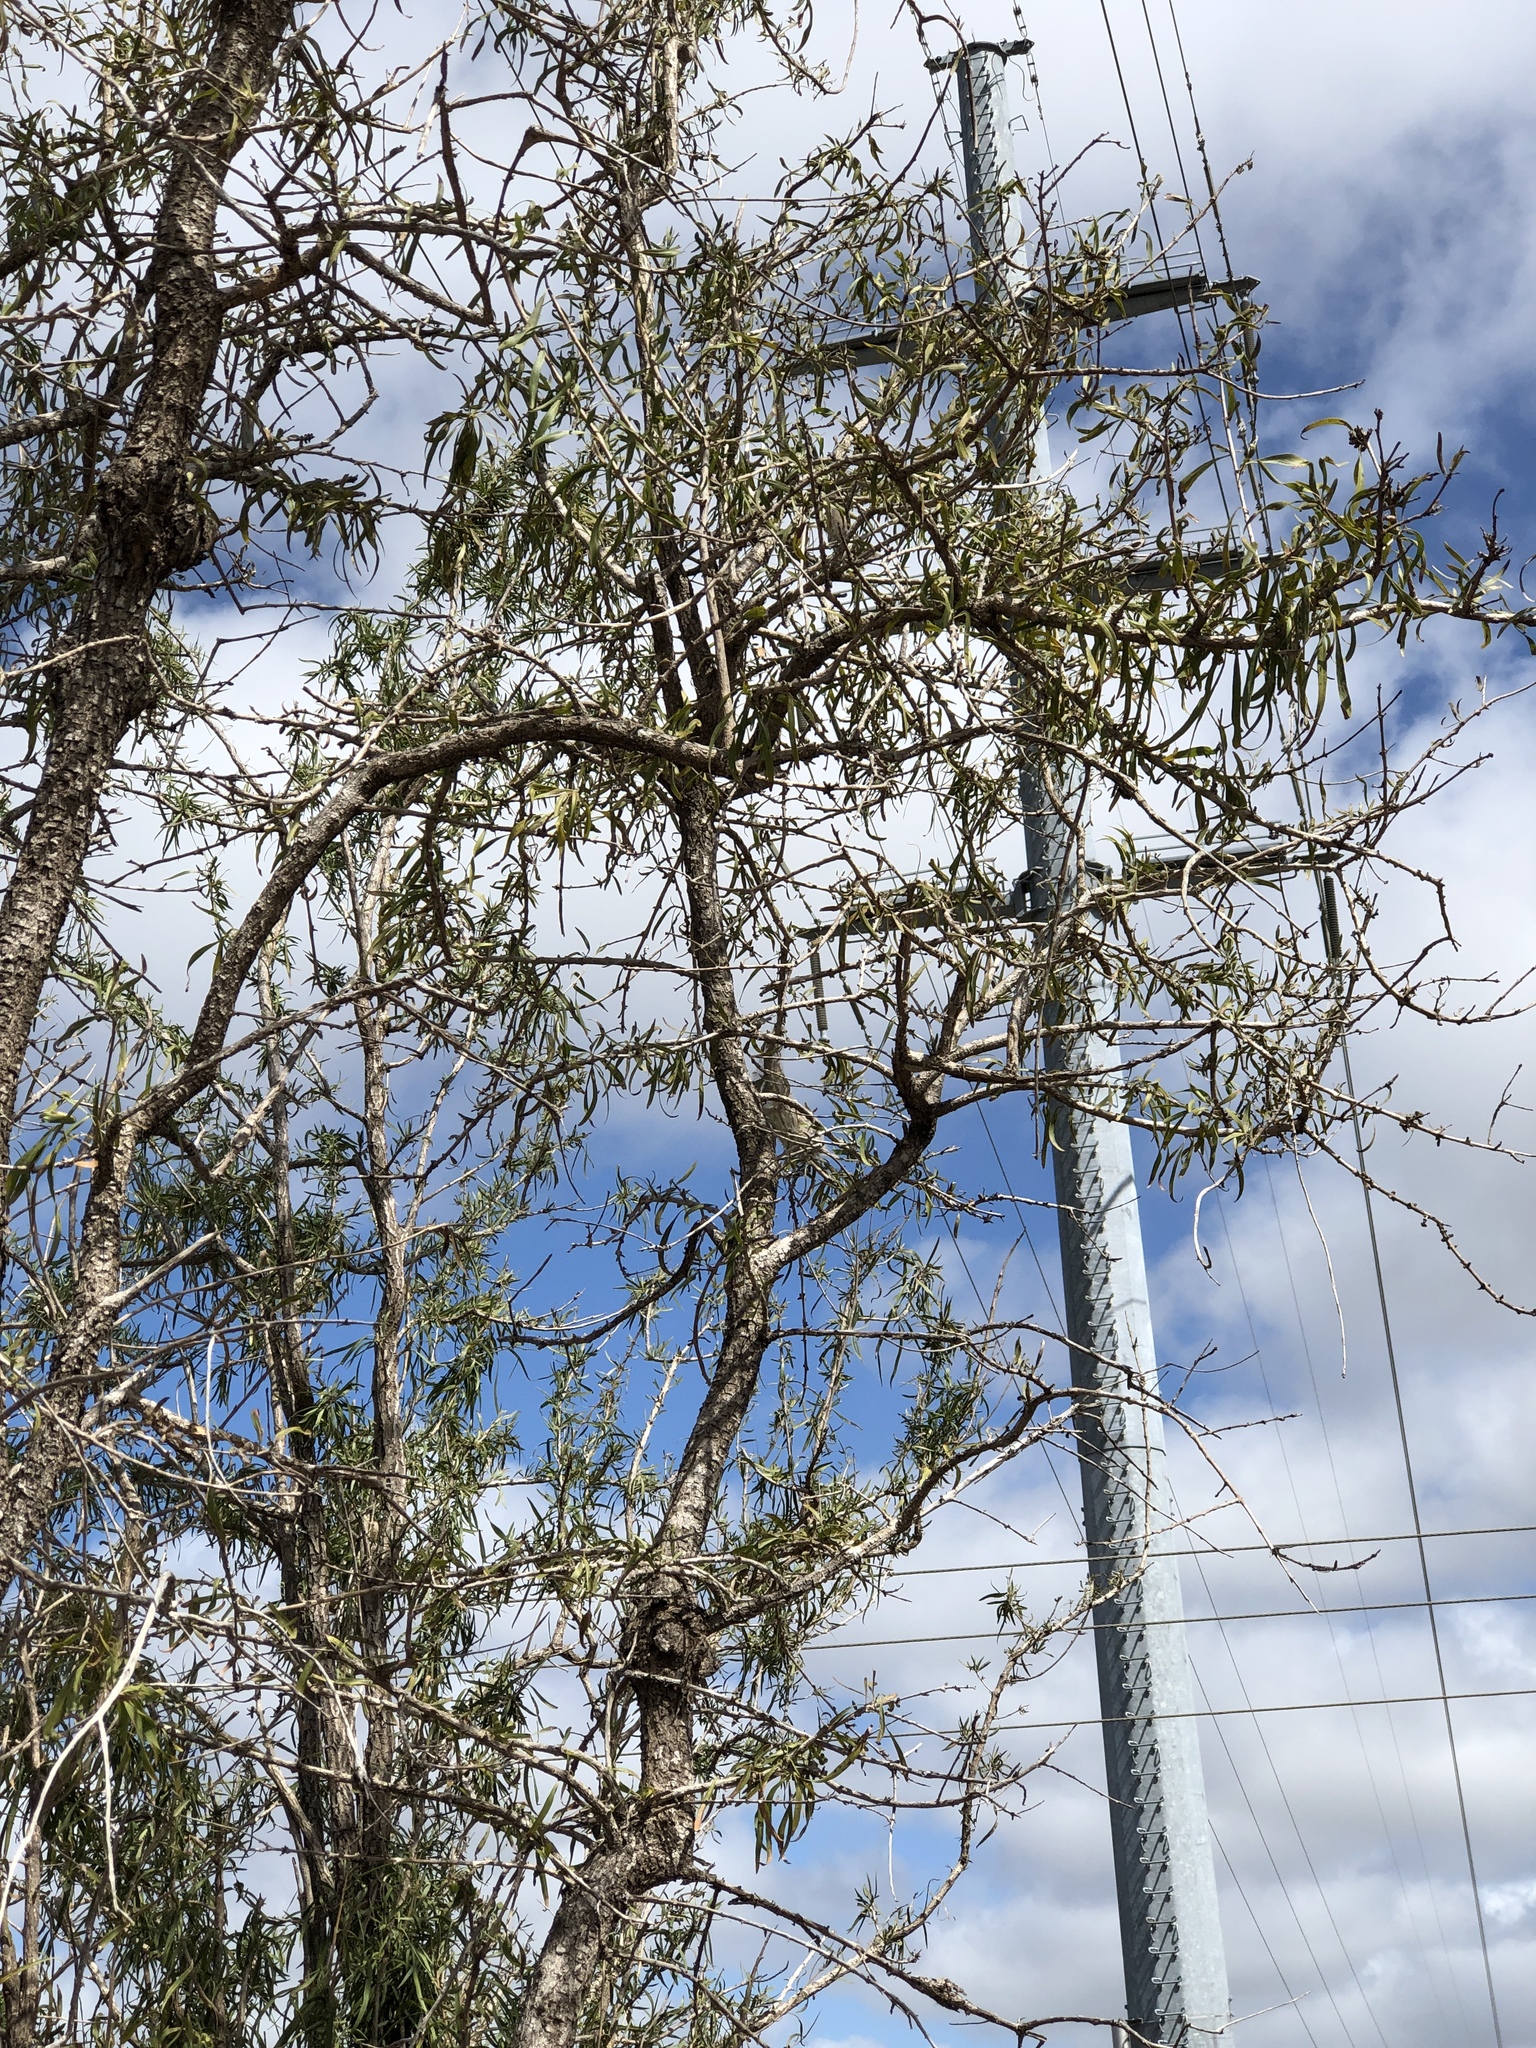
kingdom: Plantae
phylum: Tracheophyta
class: Magnoliopsida
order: Lamiales
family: Bignoniaceae
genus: Dolichandrone
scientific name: Dolichandrone alternifolia
